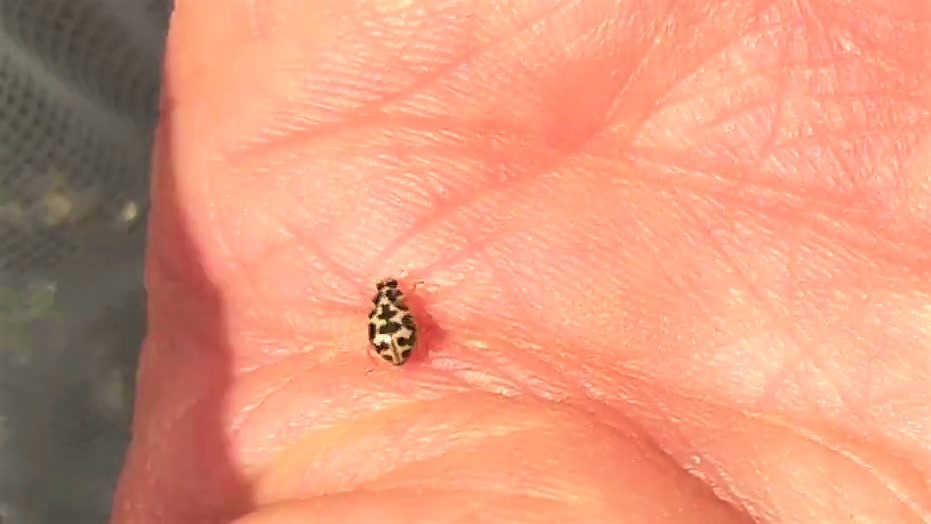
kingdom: Animalia
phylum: Arthropoda
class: Insecta
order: Coleoptera
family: Coccinellidae
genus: Anisosticta
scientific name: Anisosticta bitriangularis
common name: Marsh lady beetle
